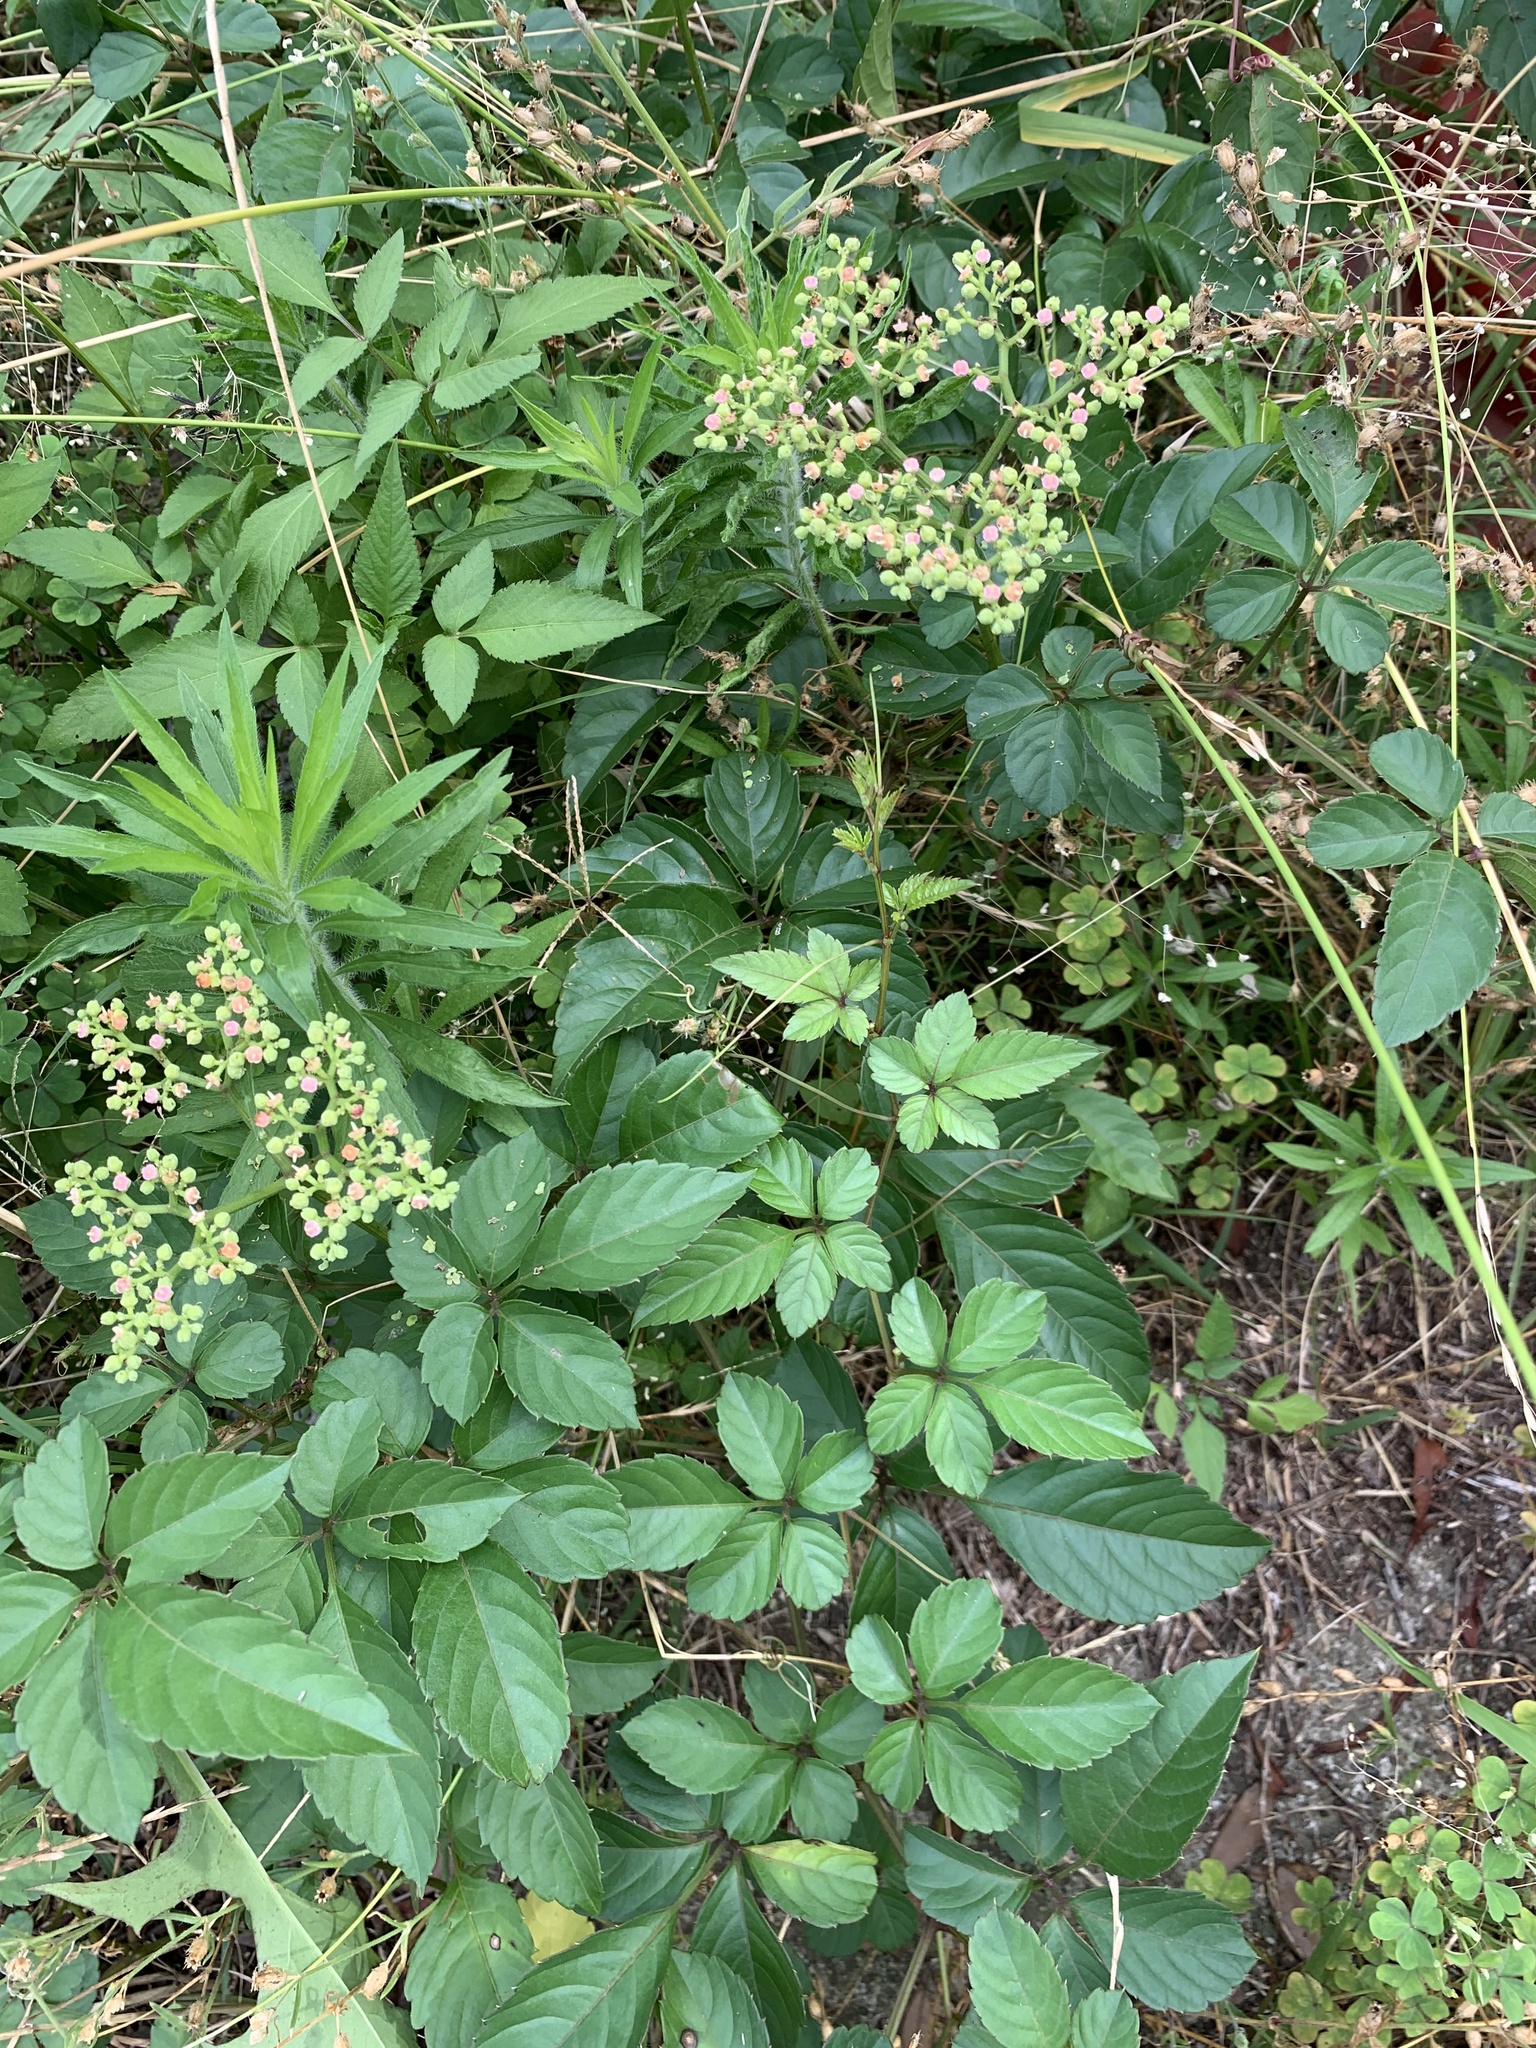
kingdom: Plantae
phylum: Tracheophyta
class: Magnoliopsida
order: Vitales
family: Vitaceae
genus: Causonis
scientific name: Causonis japonica
